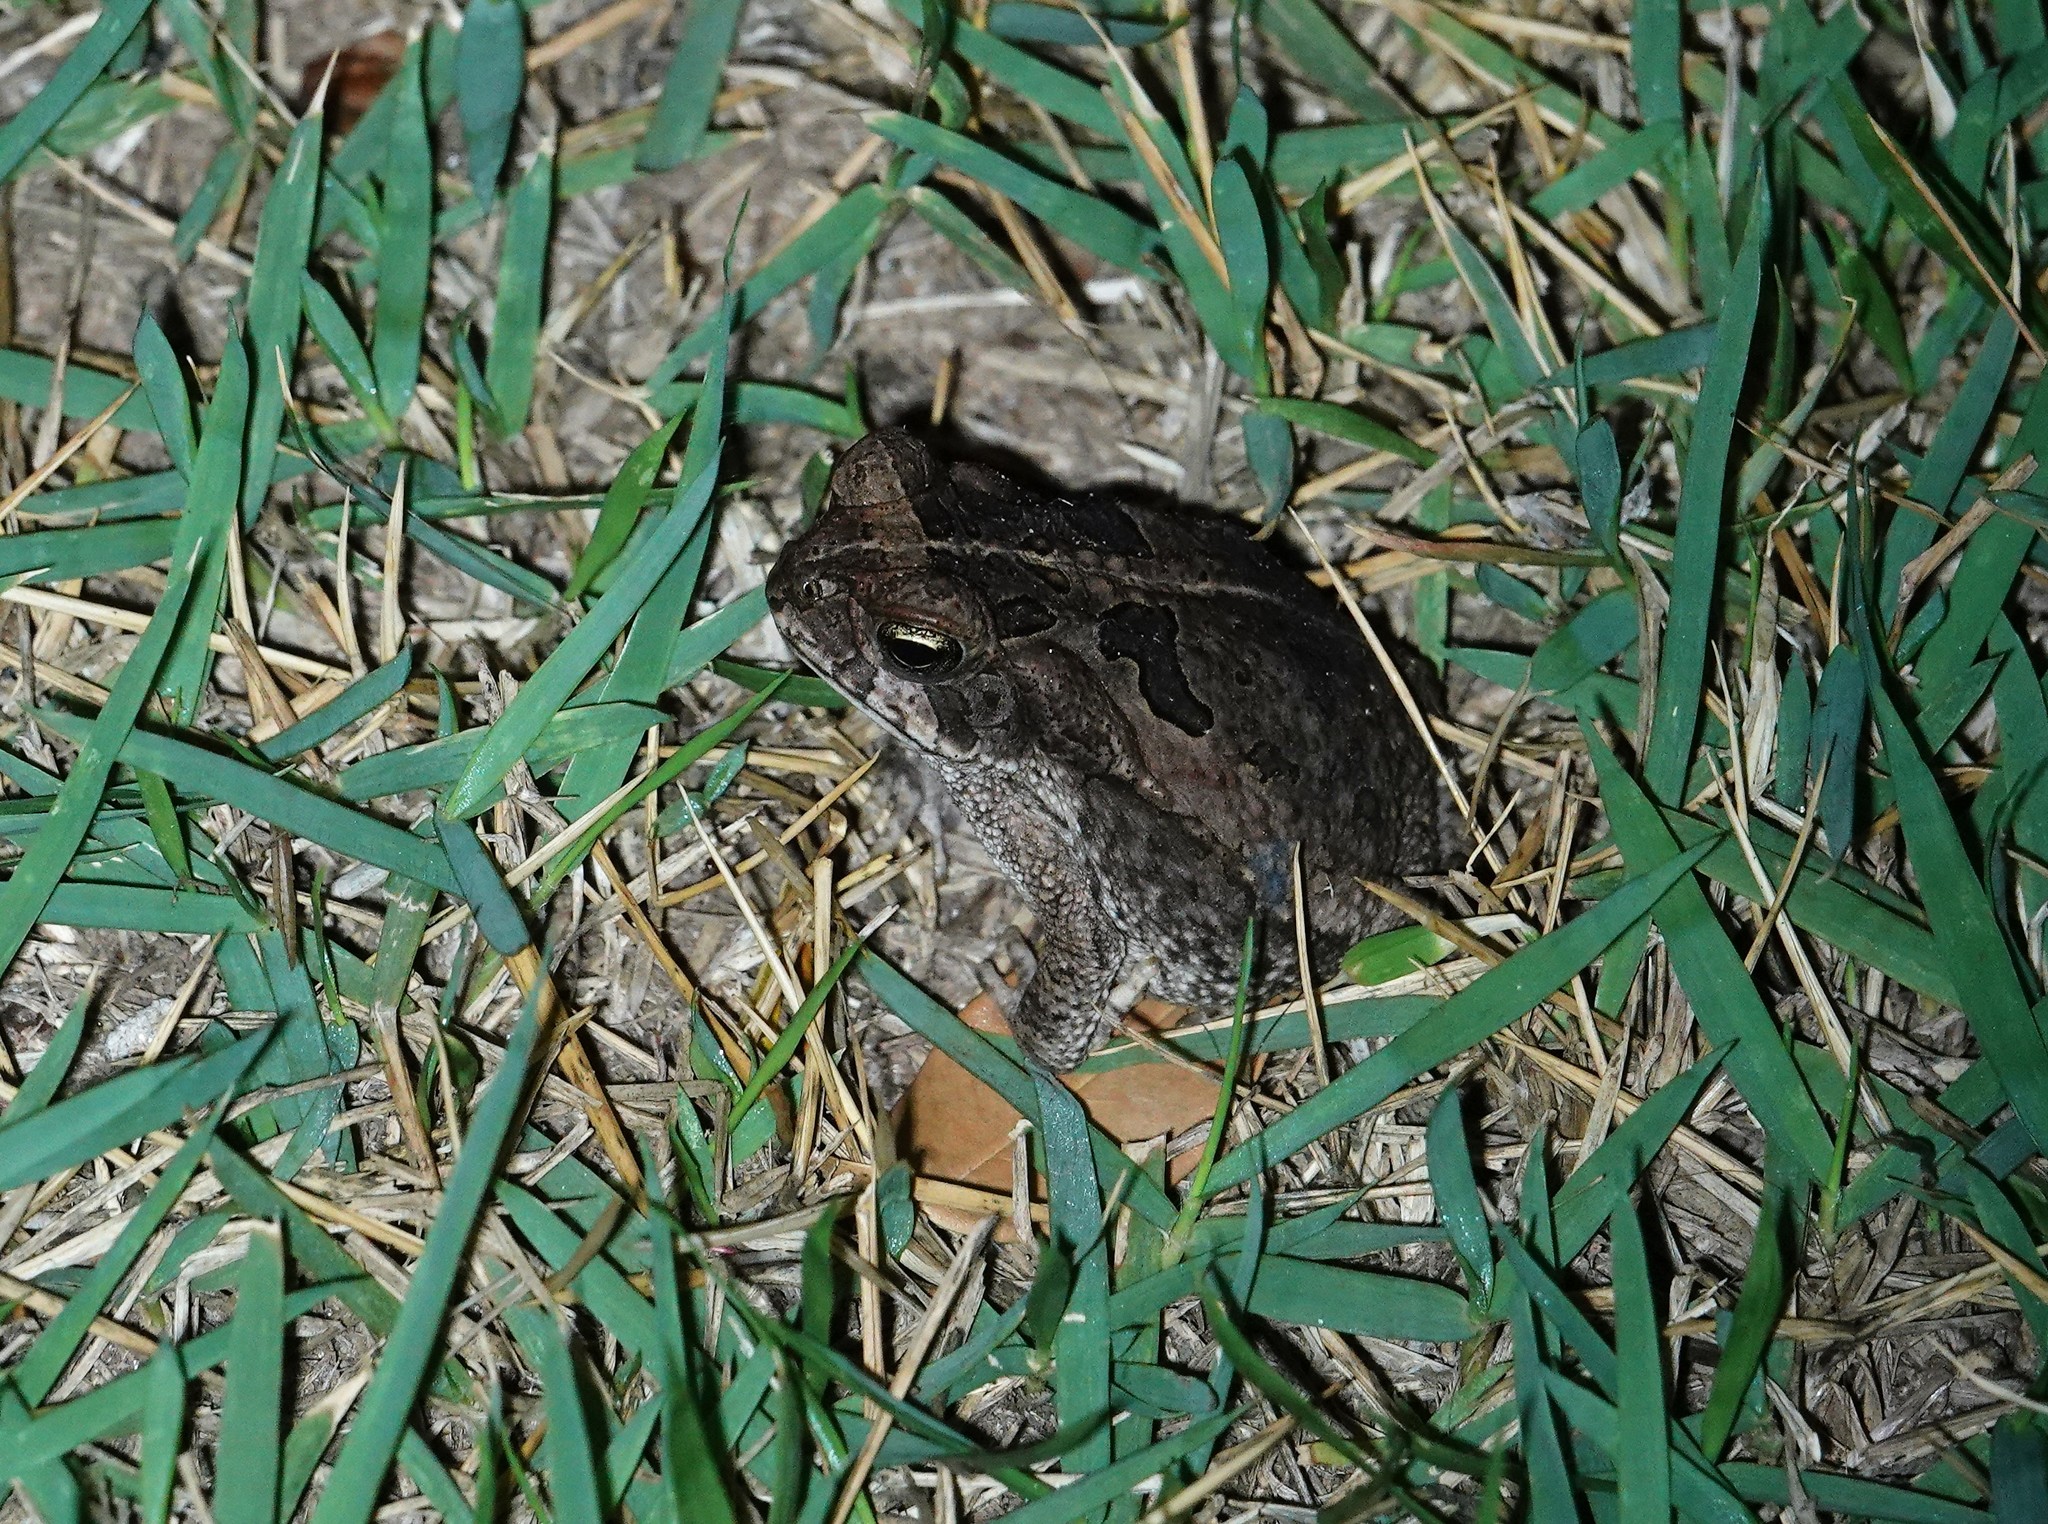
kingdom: Animalia
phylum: Chordata
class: Amphibia
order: Anura
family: Bufonidae
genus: Rhinella
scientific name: Rhinella diptycha
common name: Cope's toad
